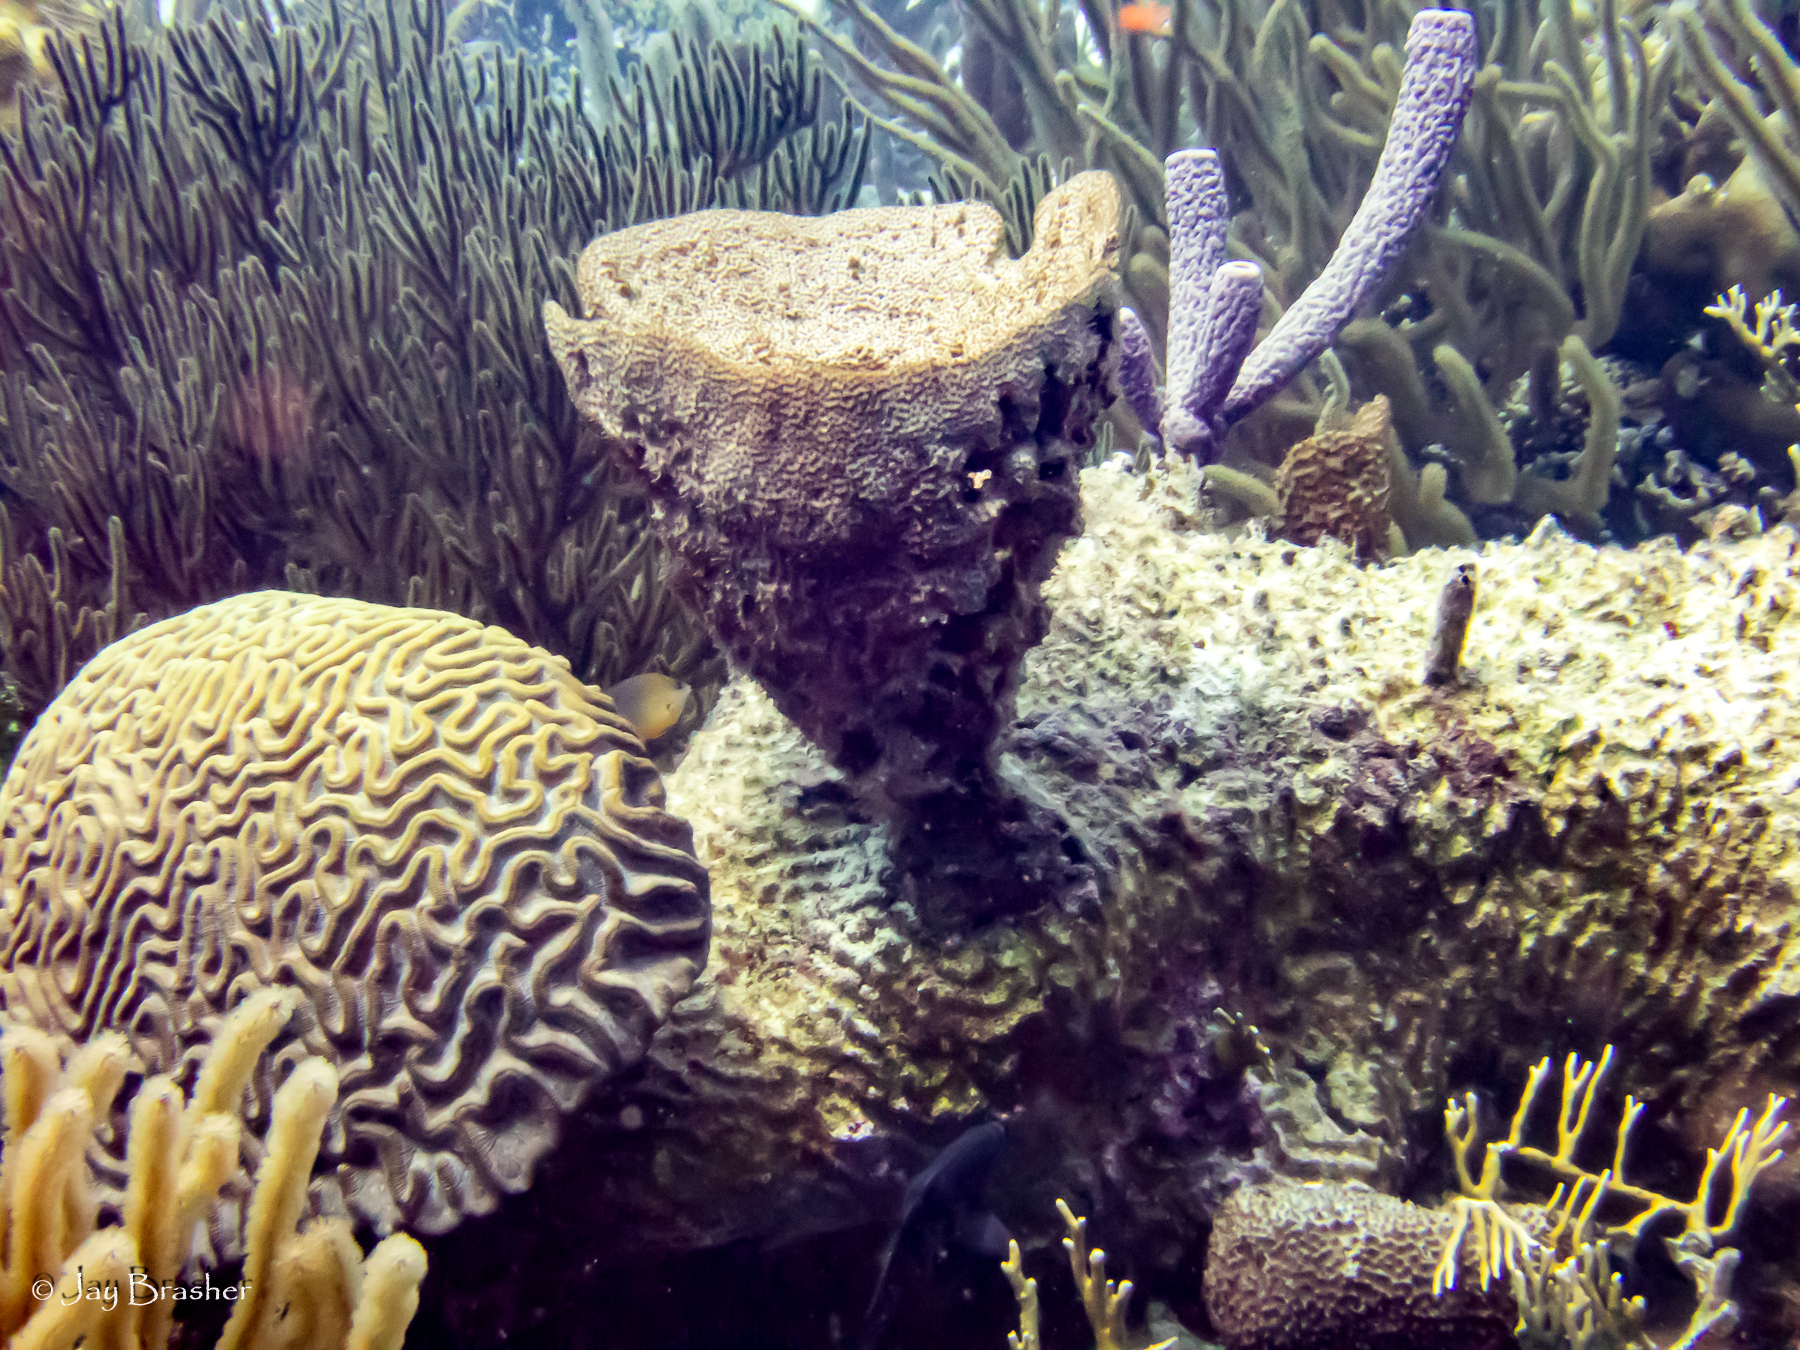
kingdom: Animalia
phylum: Cnidaria
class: Anthozoa
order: Scleractinia
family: Faviidae
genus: Colpophyllia
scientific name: Colpophyllia natans
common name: Boulder brain coral
